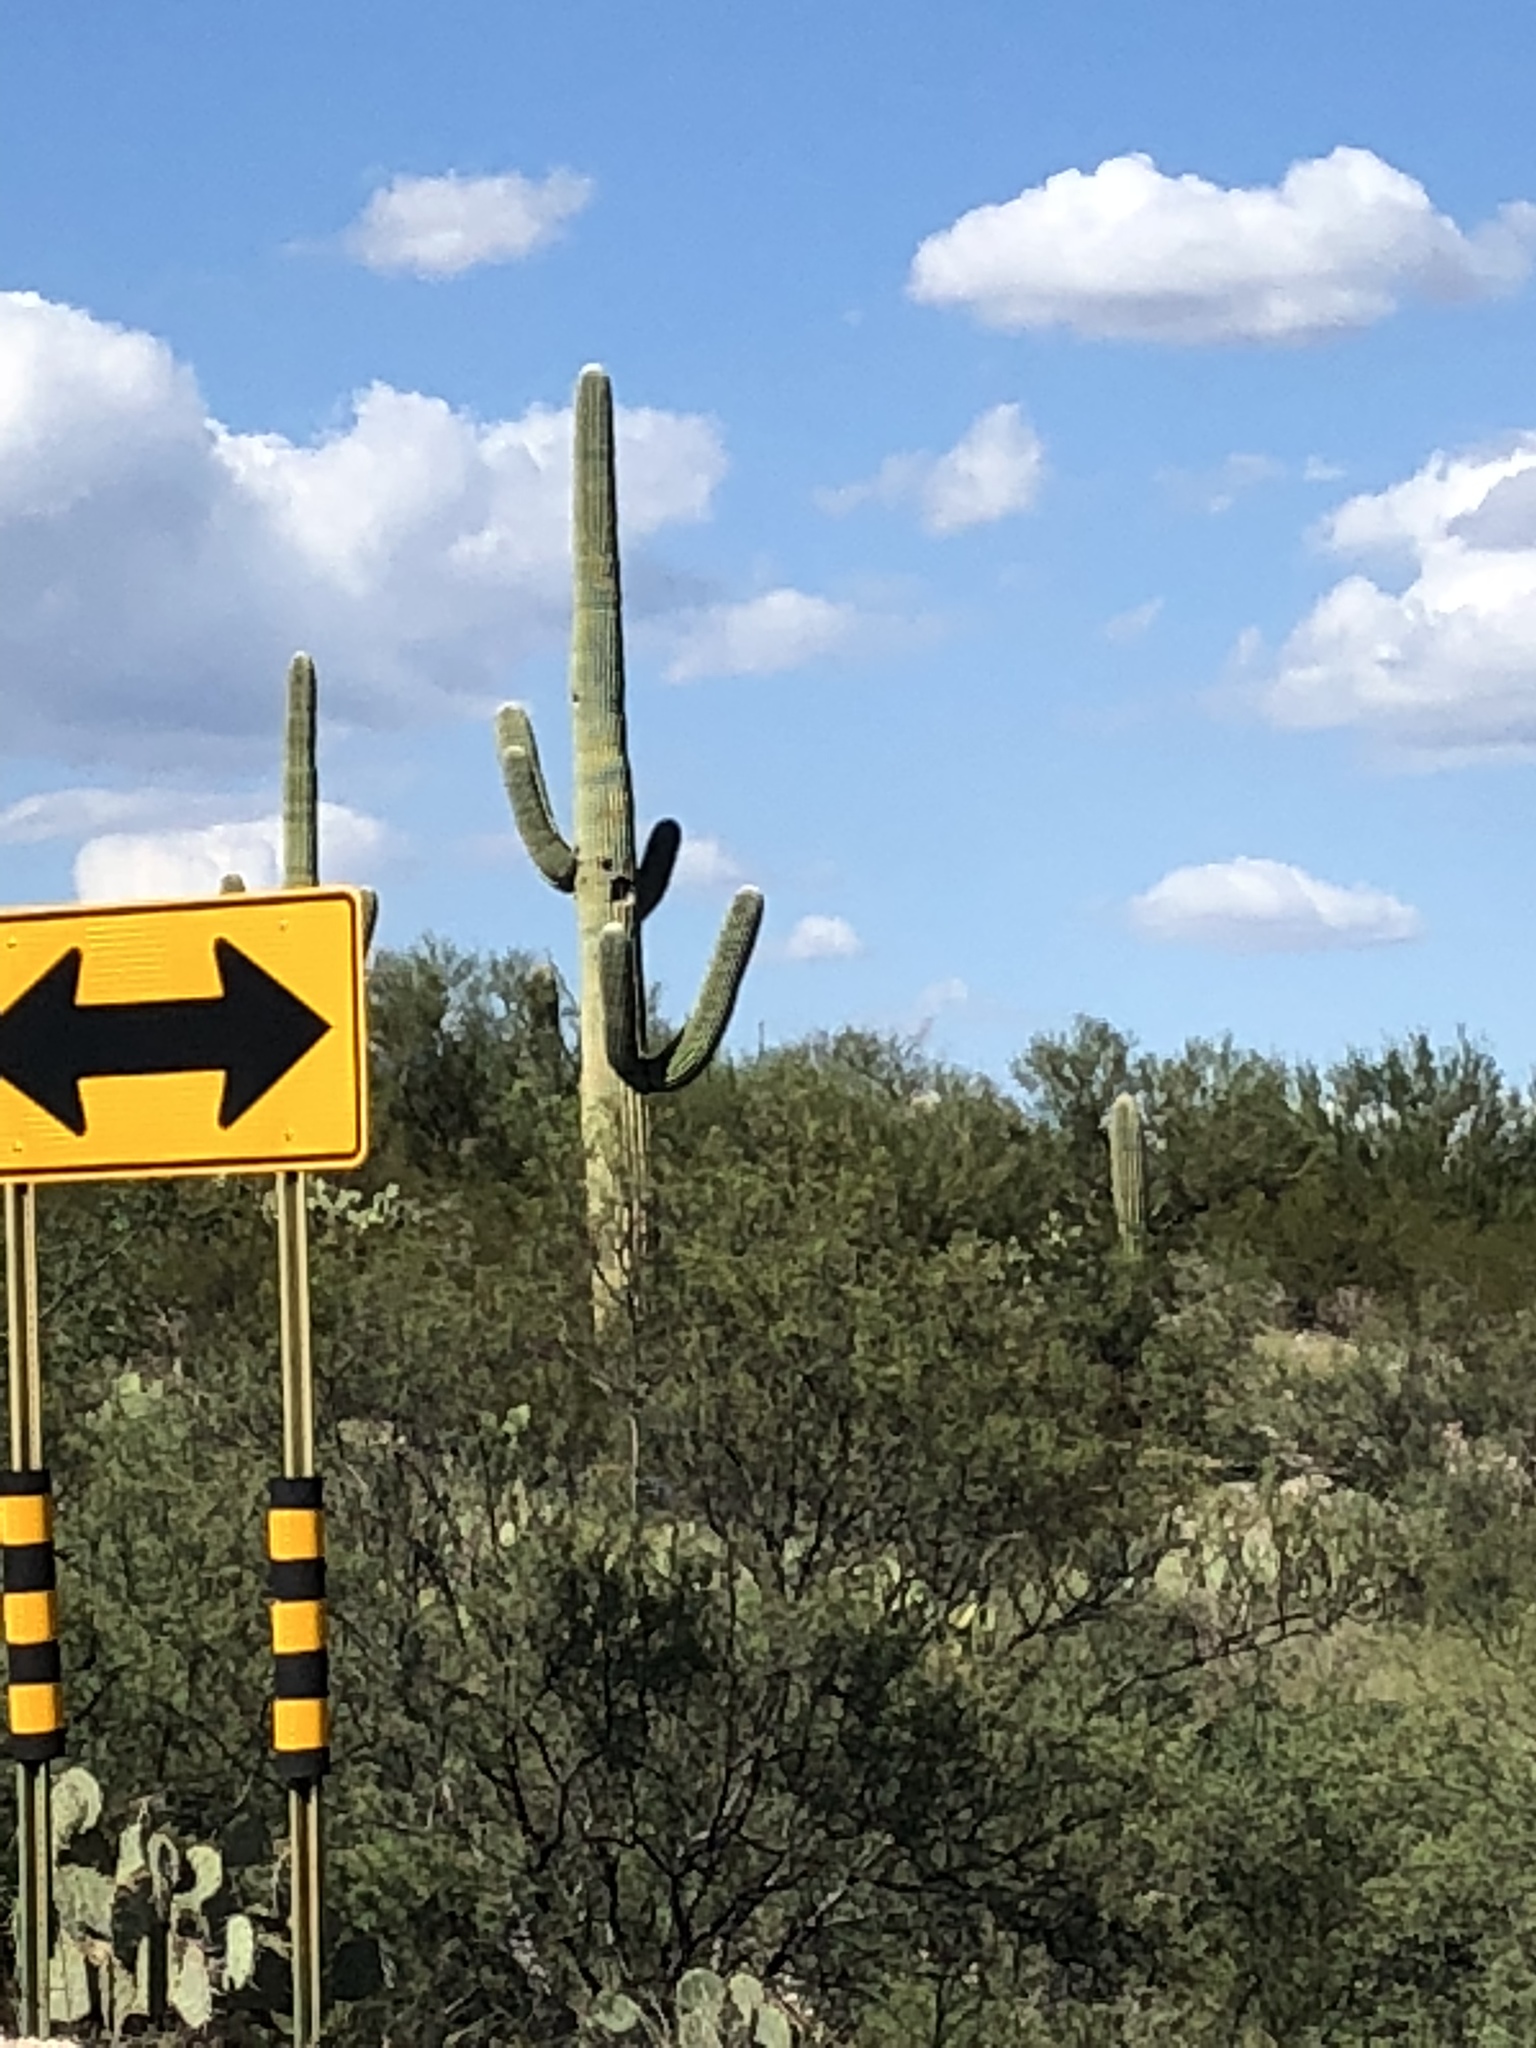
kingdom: Plantae
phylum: Tracheophyta
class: Magnoliopsida
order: Caryophyllales
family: Cactaceae
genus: Carnegiea
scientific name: Carnegiea gigantea
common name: Saguaro
